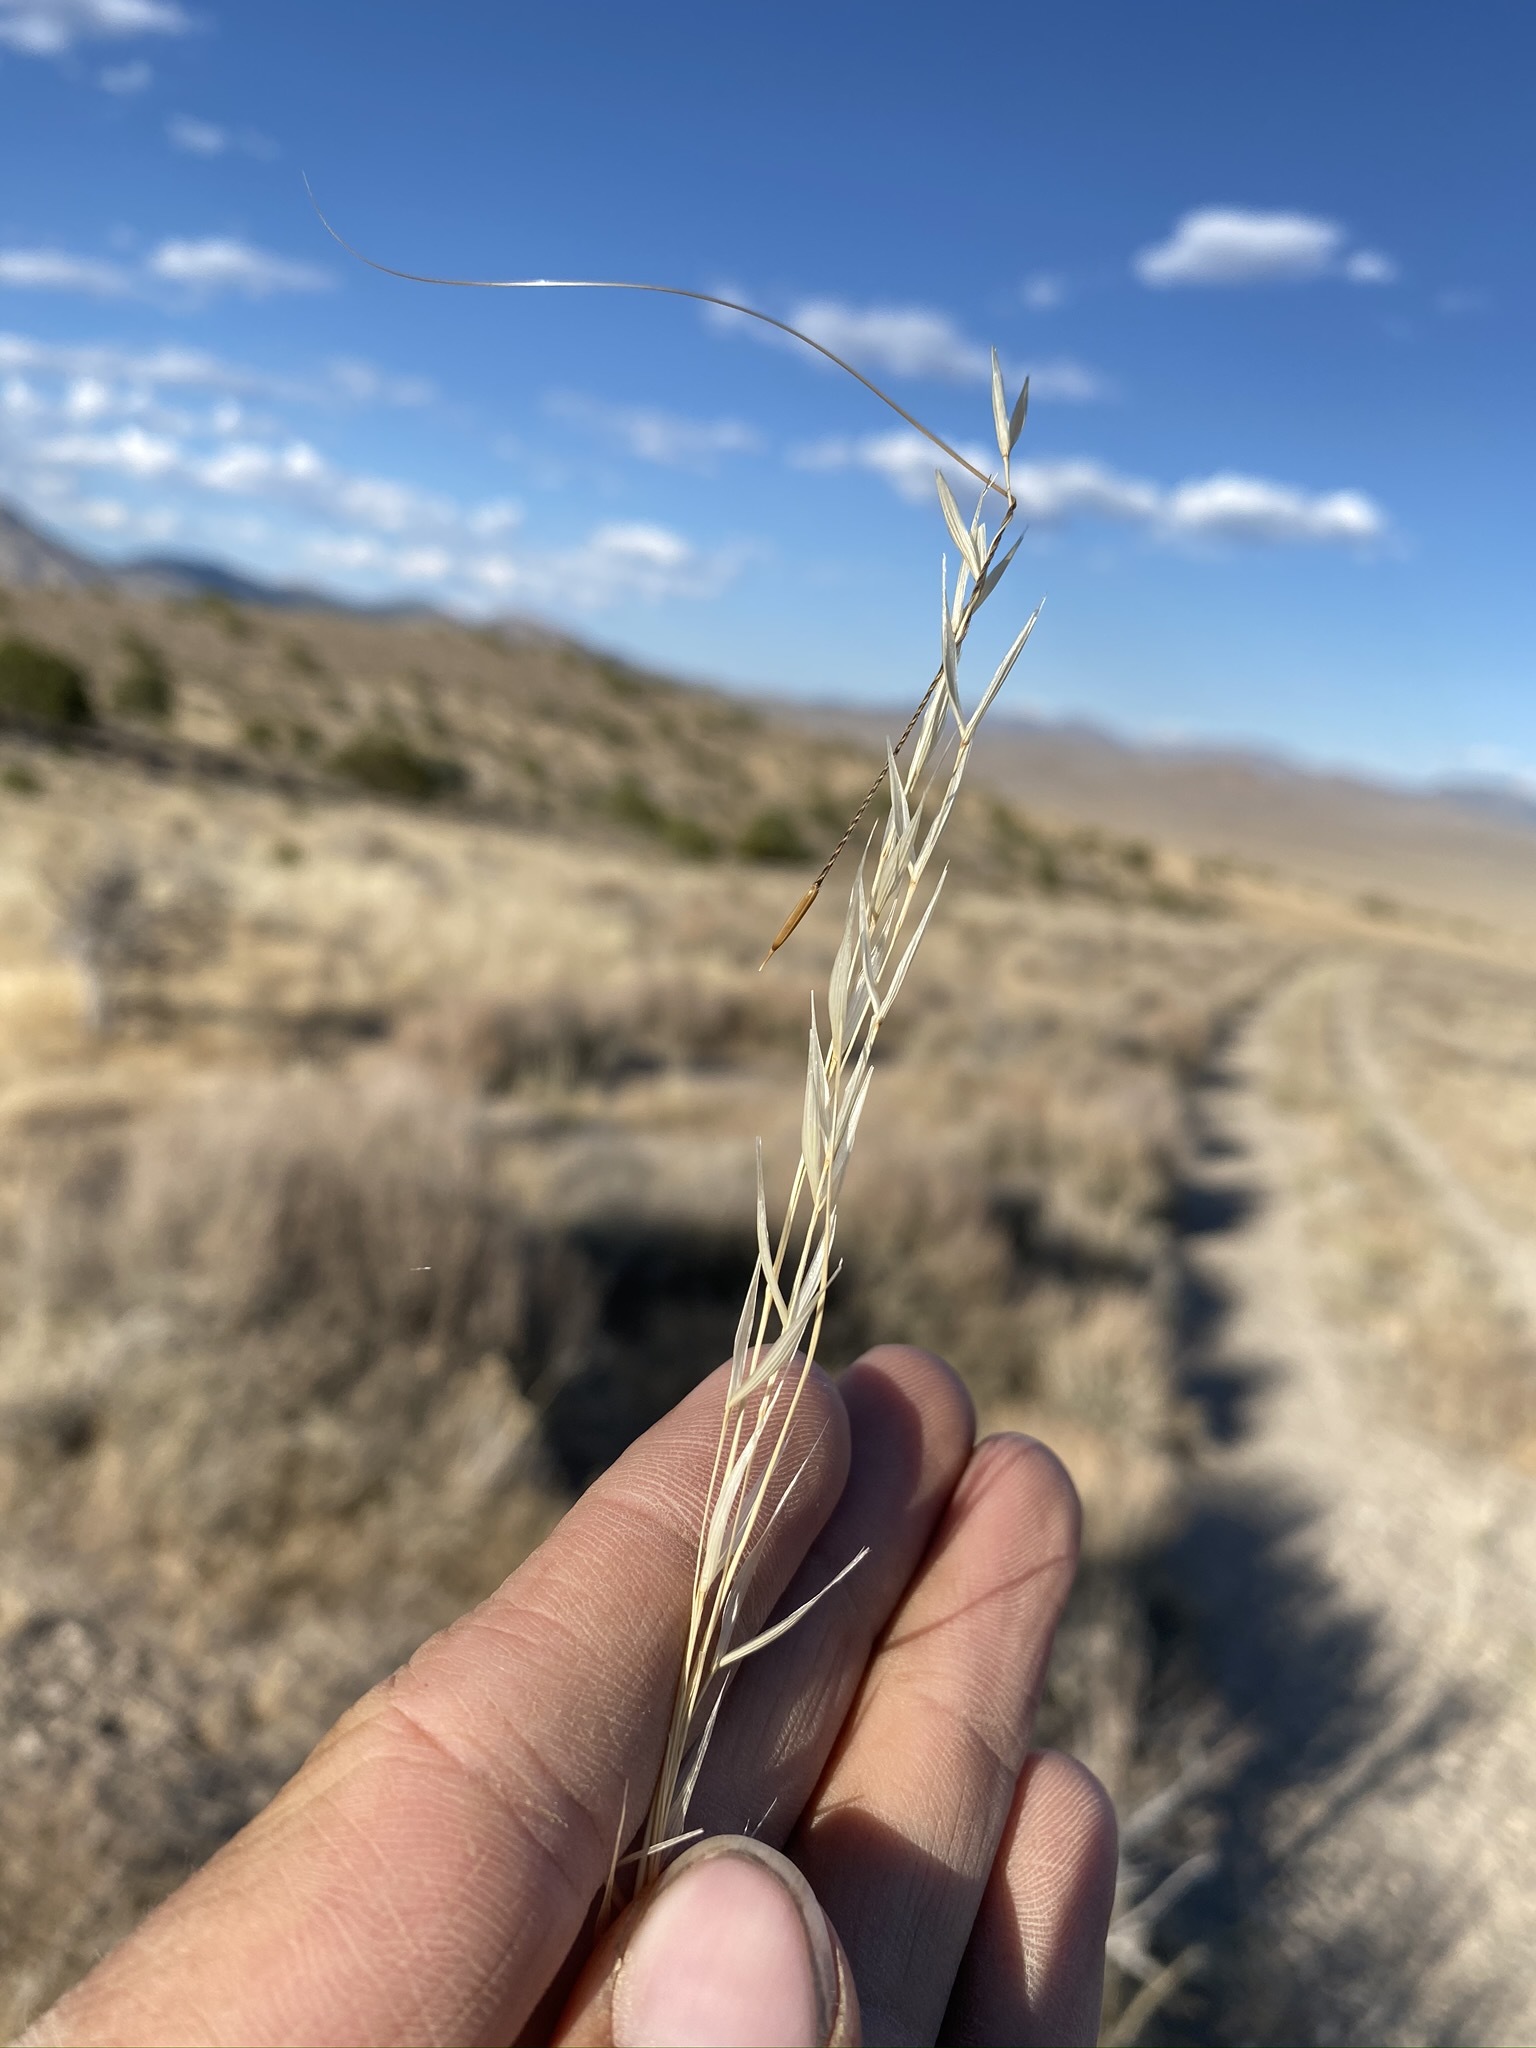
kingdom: Plantae
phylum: Tracheophyta
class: Liliopsida
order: Poales
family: Poaceae
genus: Hesperostipa
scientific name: Hesperostipa comata
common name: Needle-and-thread grass
